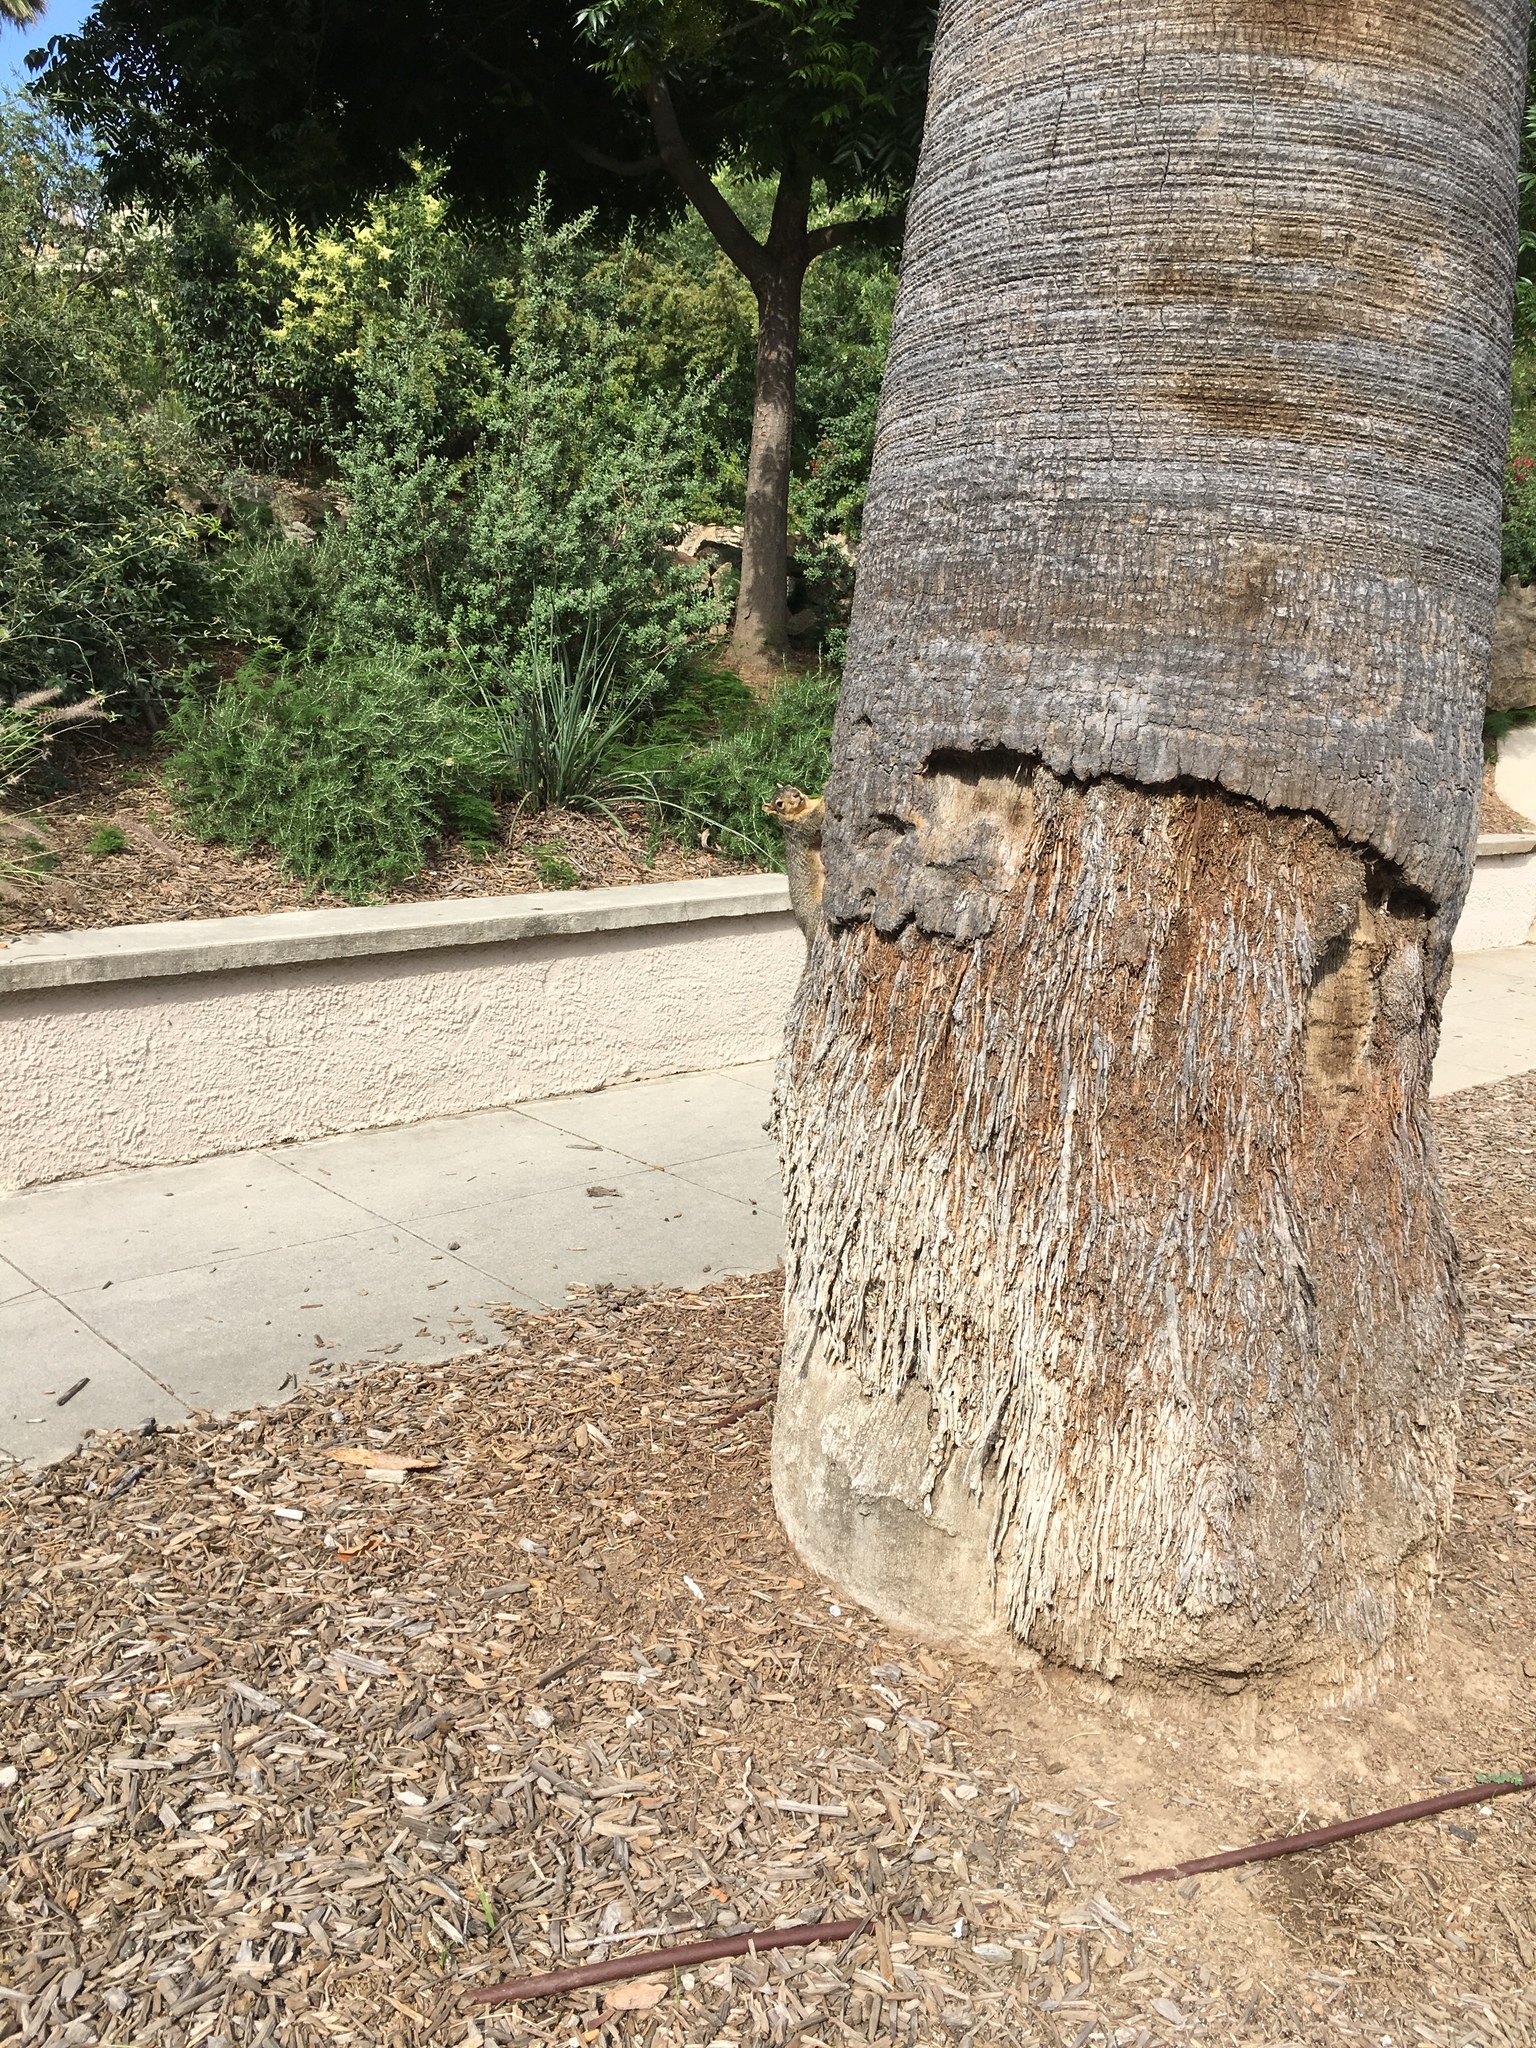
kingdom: Animalia
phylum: Chordata
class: Mammalia
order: Rodentia
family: Sciuridae
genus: Sciurus
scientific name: Sciurus niger
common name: Fox squirrel
